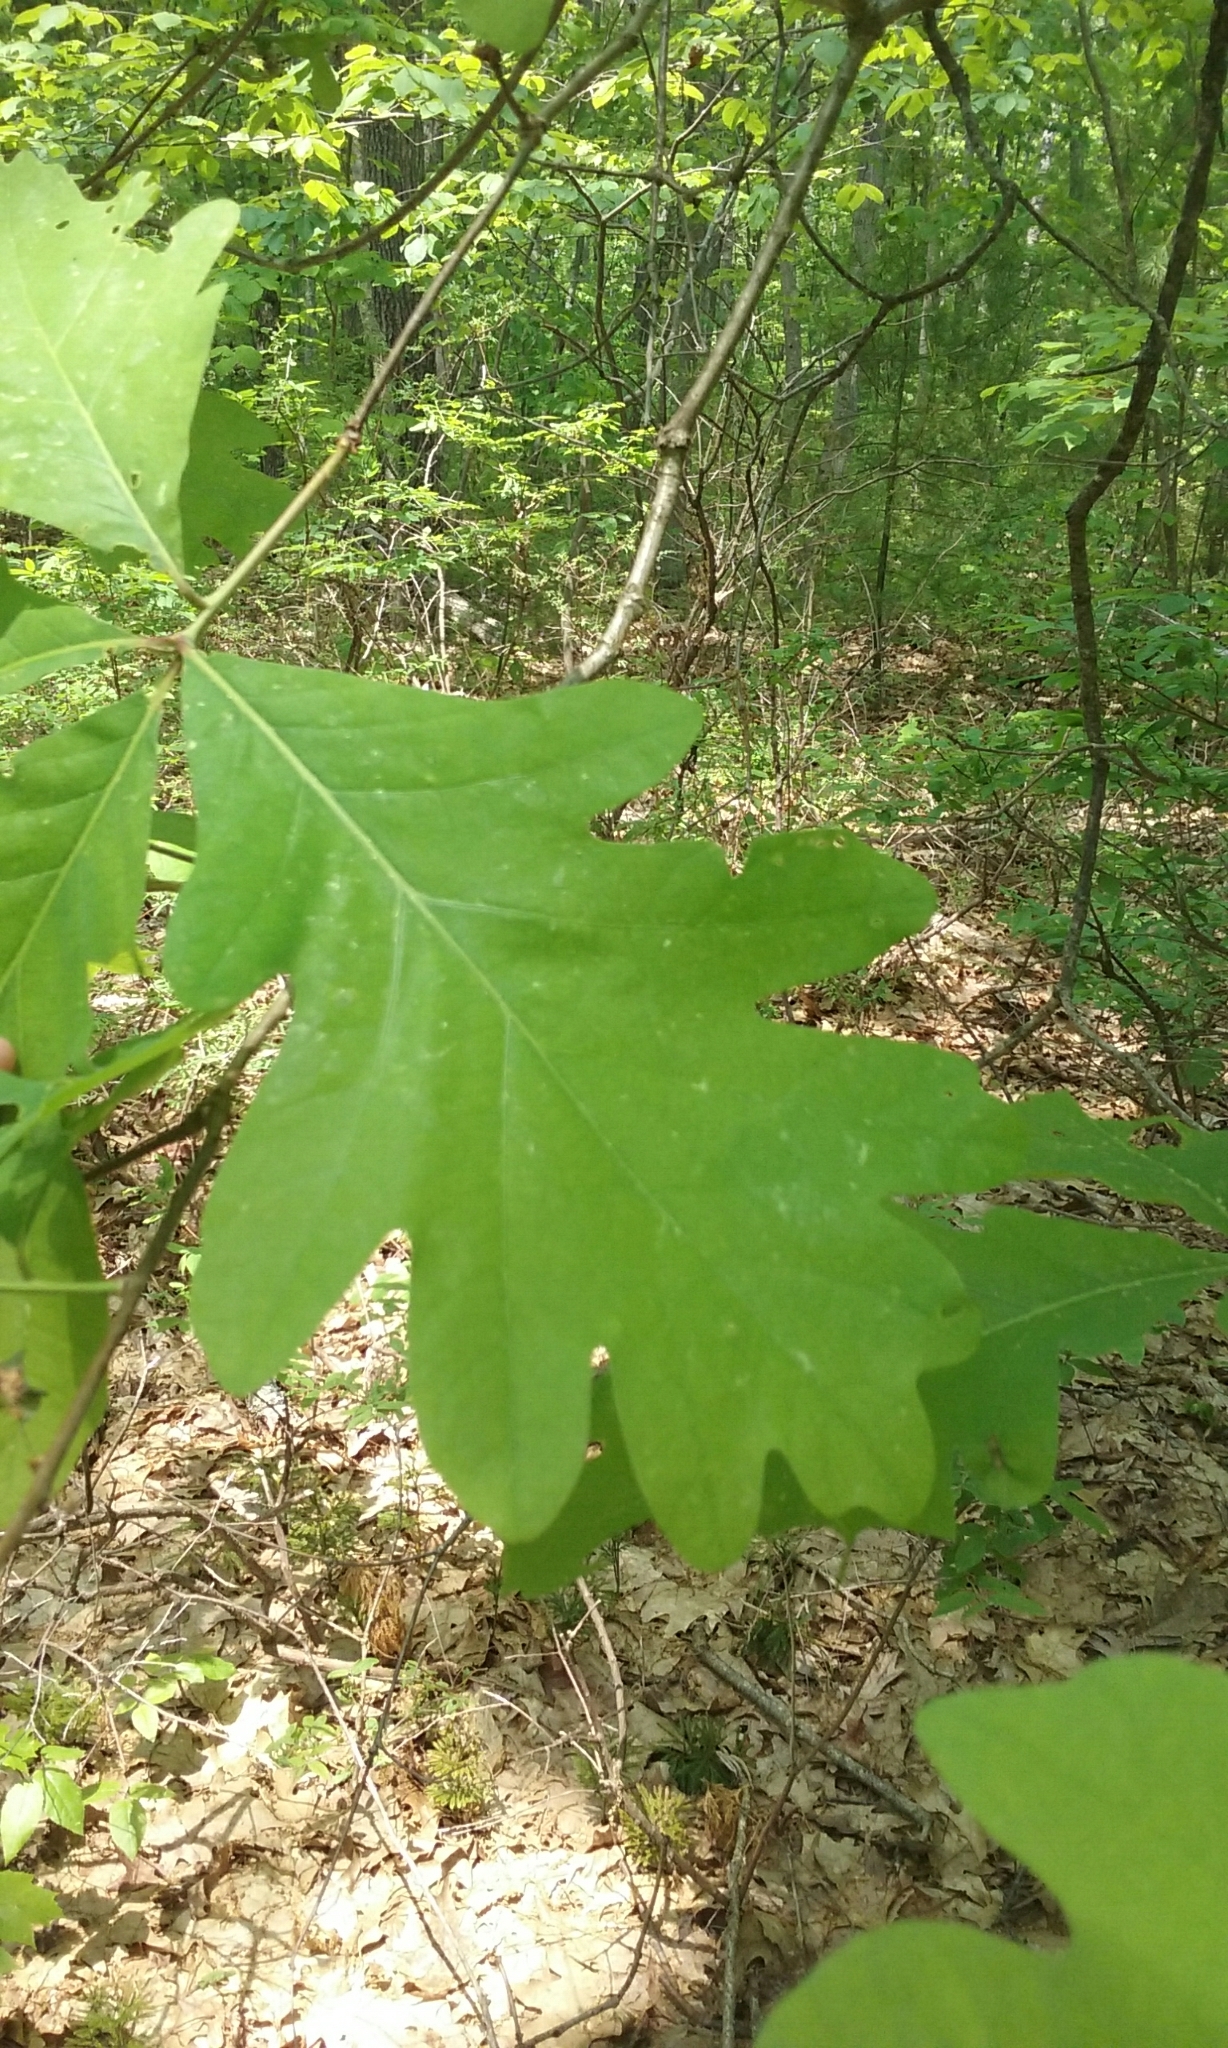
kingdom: Plantae
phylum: Tracheophyta
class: Magnoliopsida
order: Fagales
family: Fagaceae
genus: Quercus
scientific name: Quercus alba
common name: White oak
